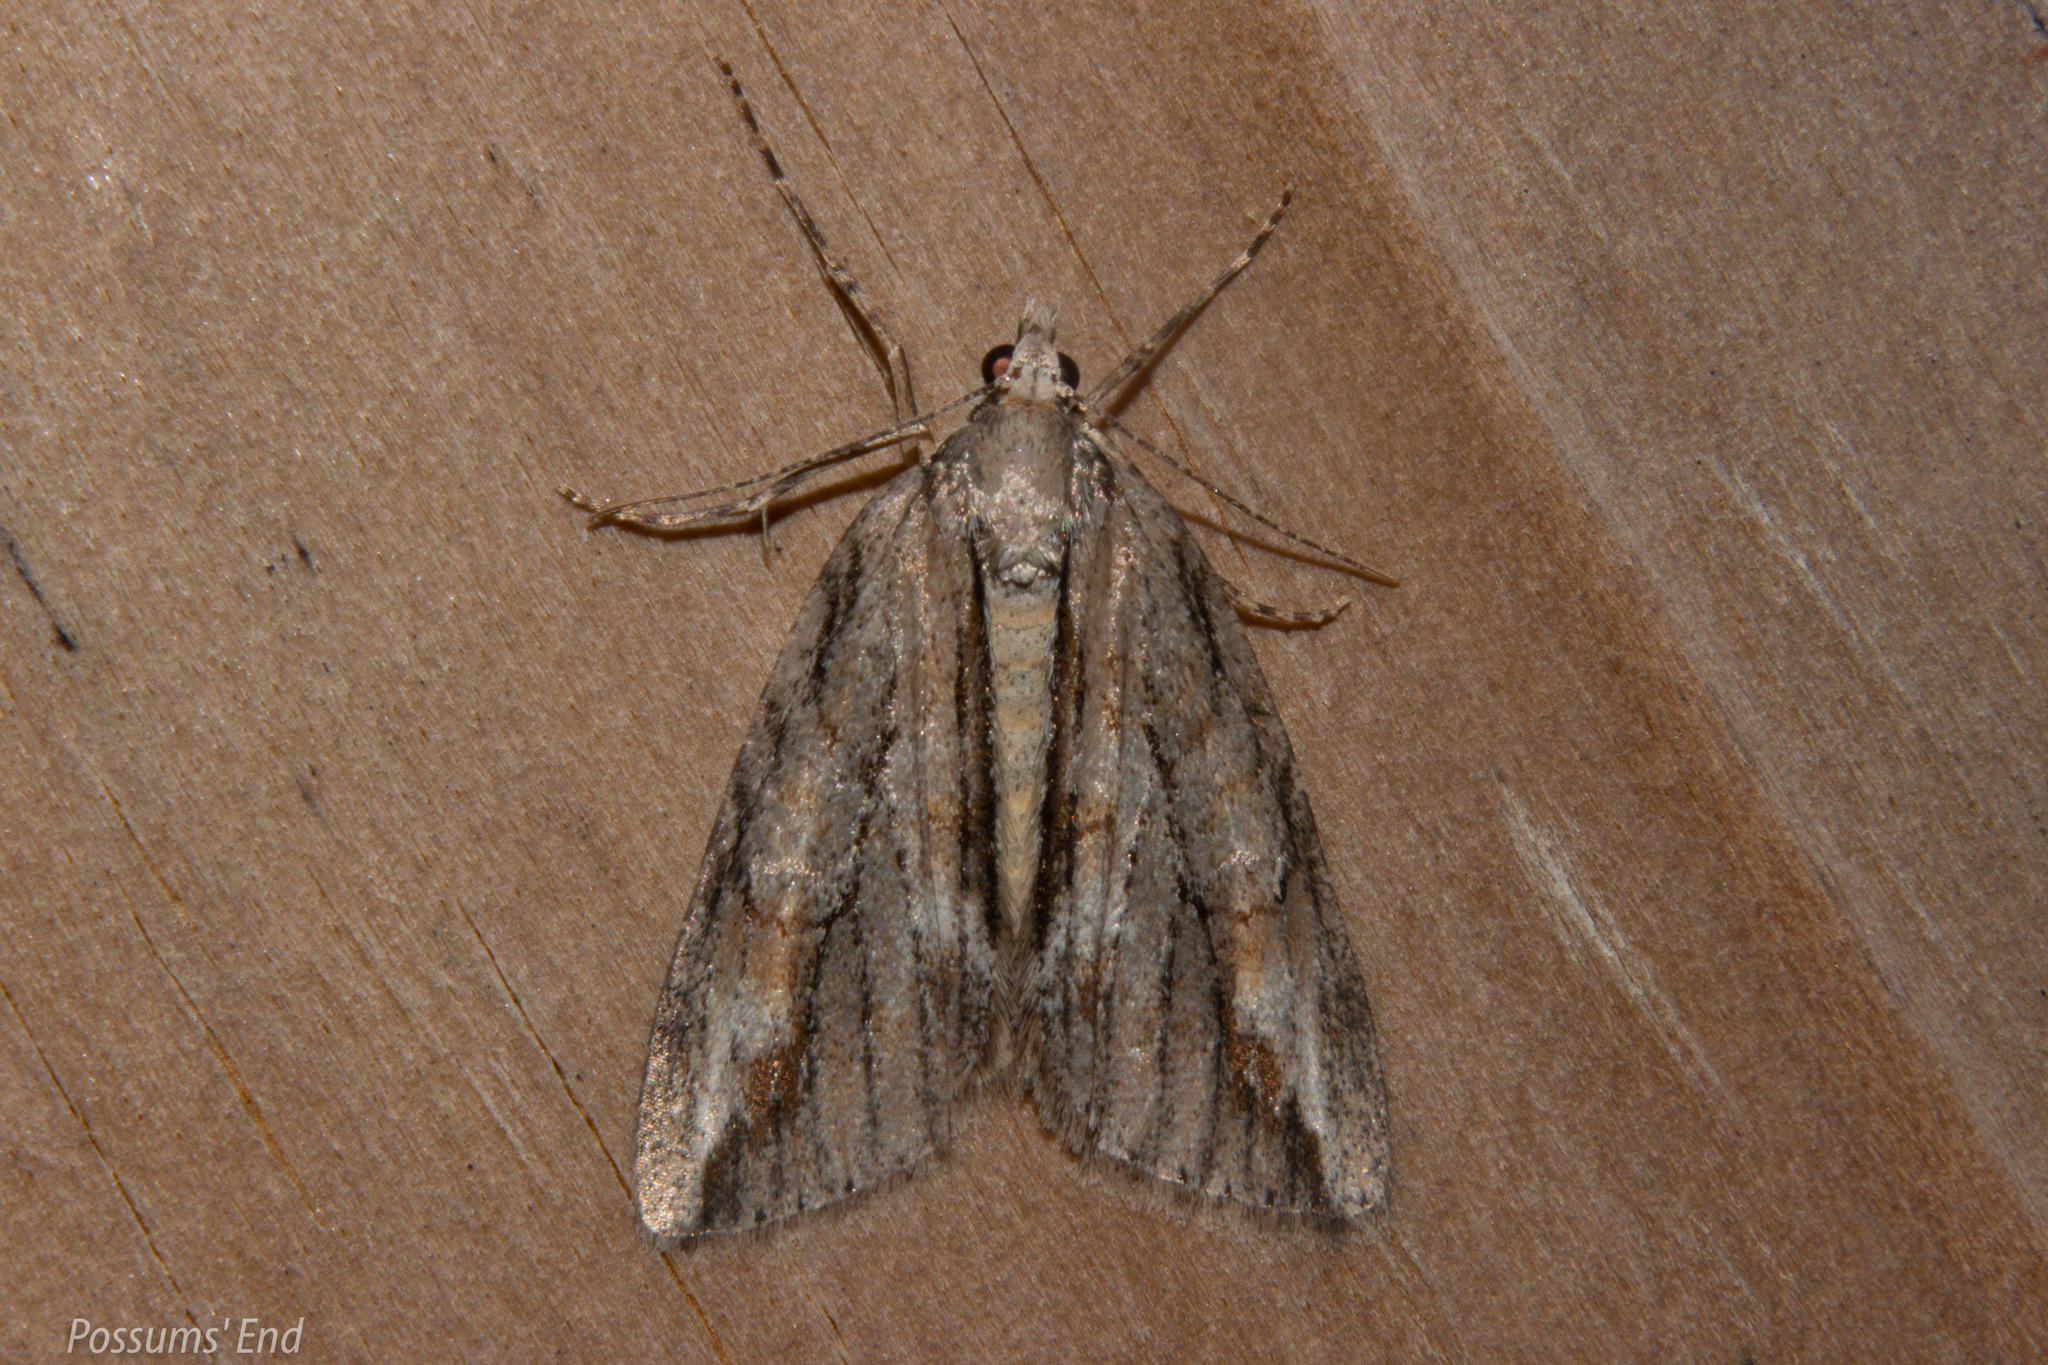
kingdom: Animalia
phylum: Arthropoda
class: Insecta
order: Lepidoptera
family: Geometridae
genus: Pseudocoremia
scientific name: Pseudocoremia lupinata
